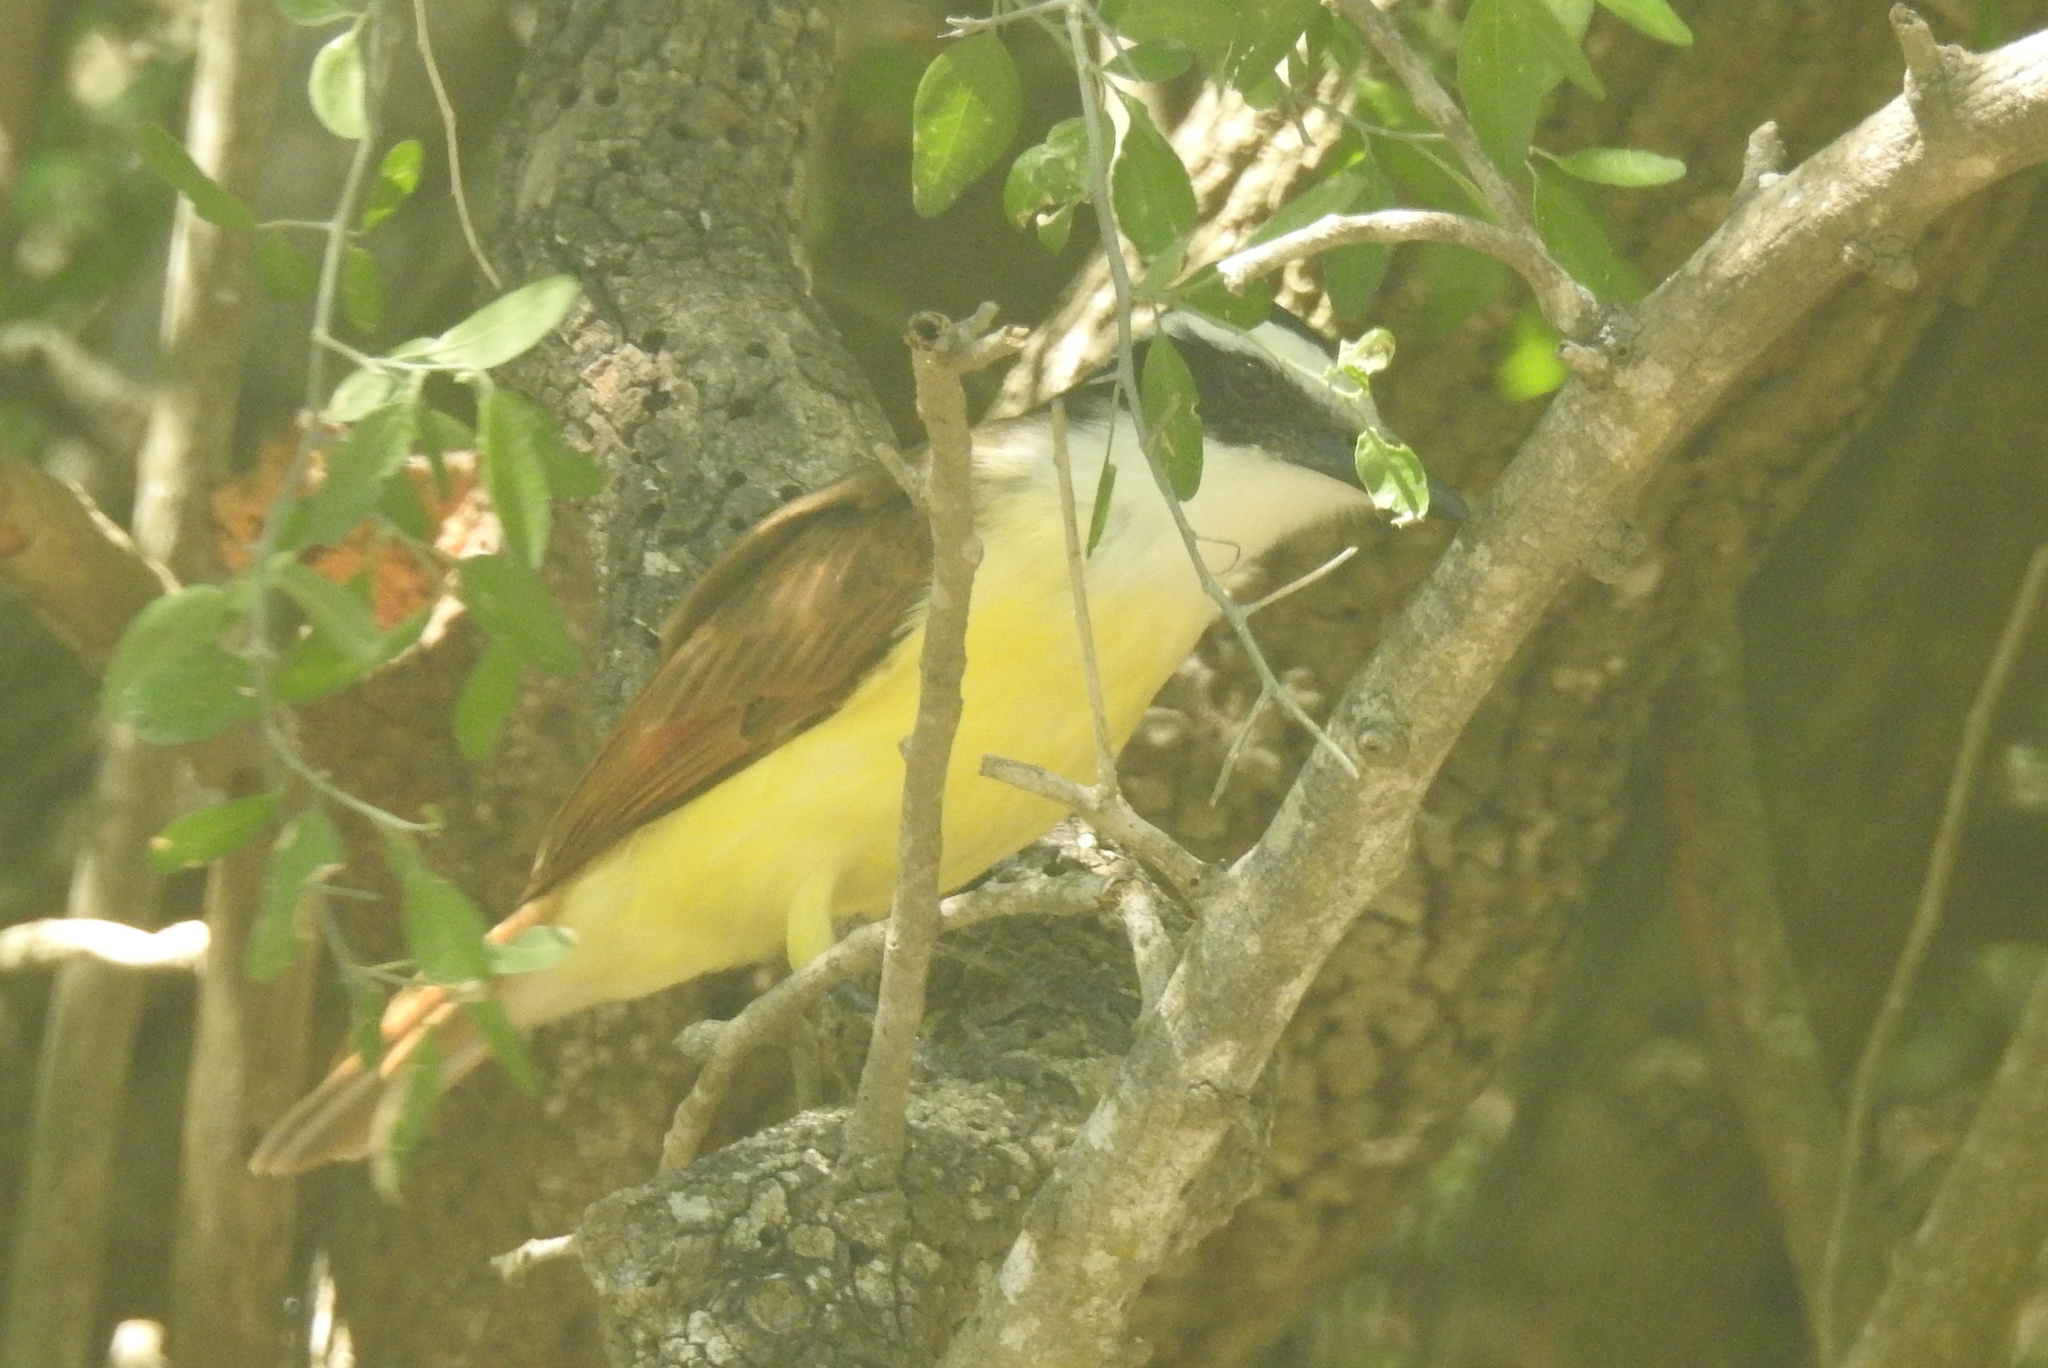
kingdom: Animalia
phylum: Chordata
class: Aves
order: Passeriformes
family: Tyrannidae
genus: Pitangus
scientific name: Pitangus sulphuratus
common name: Great kiskadee
